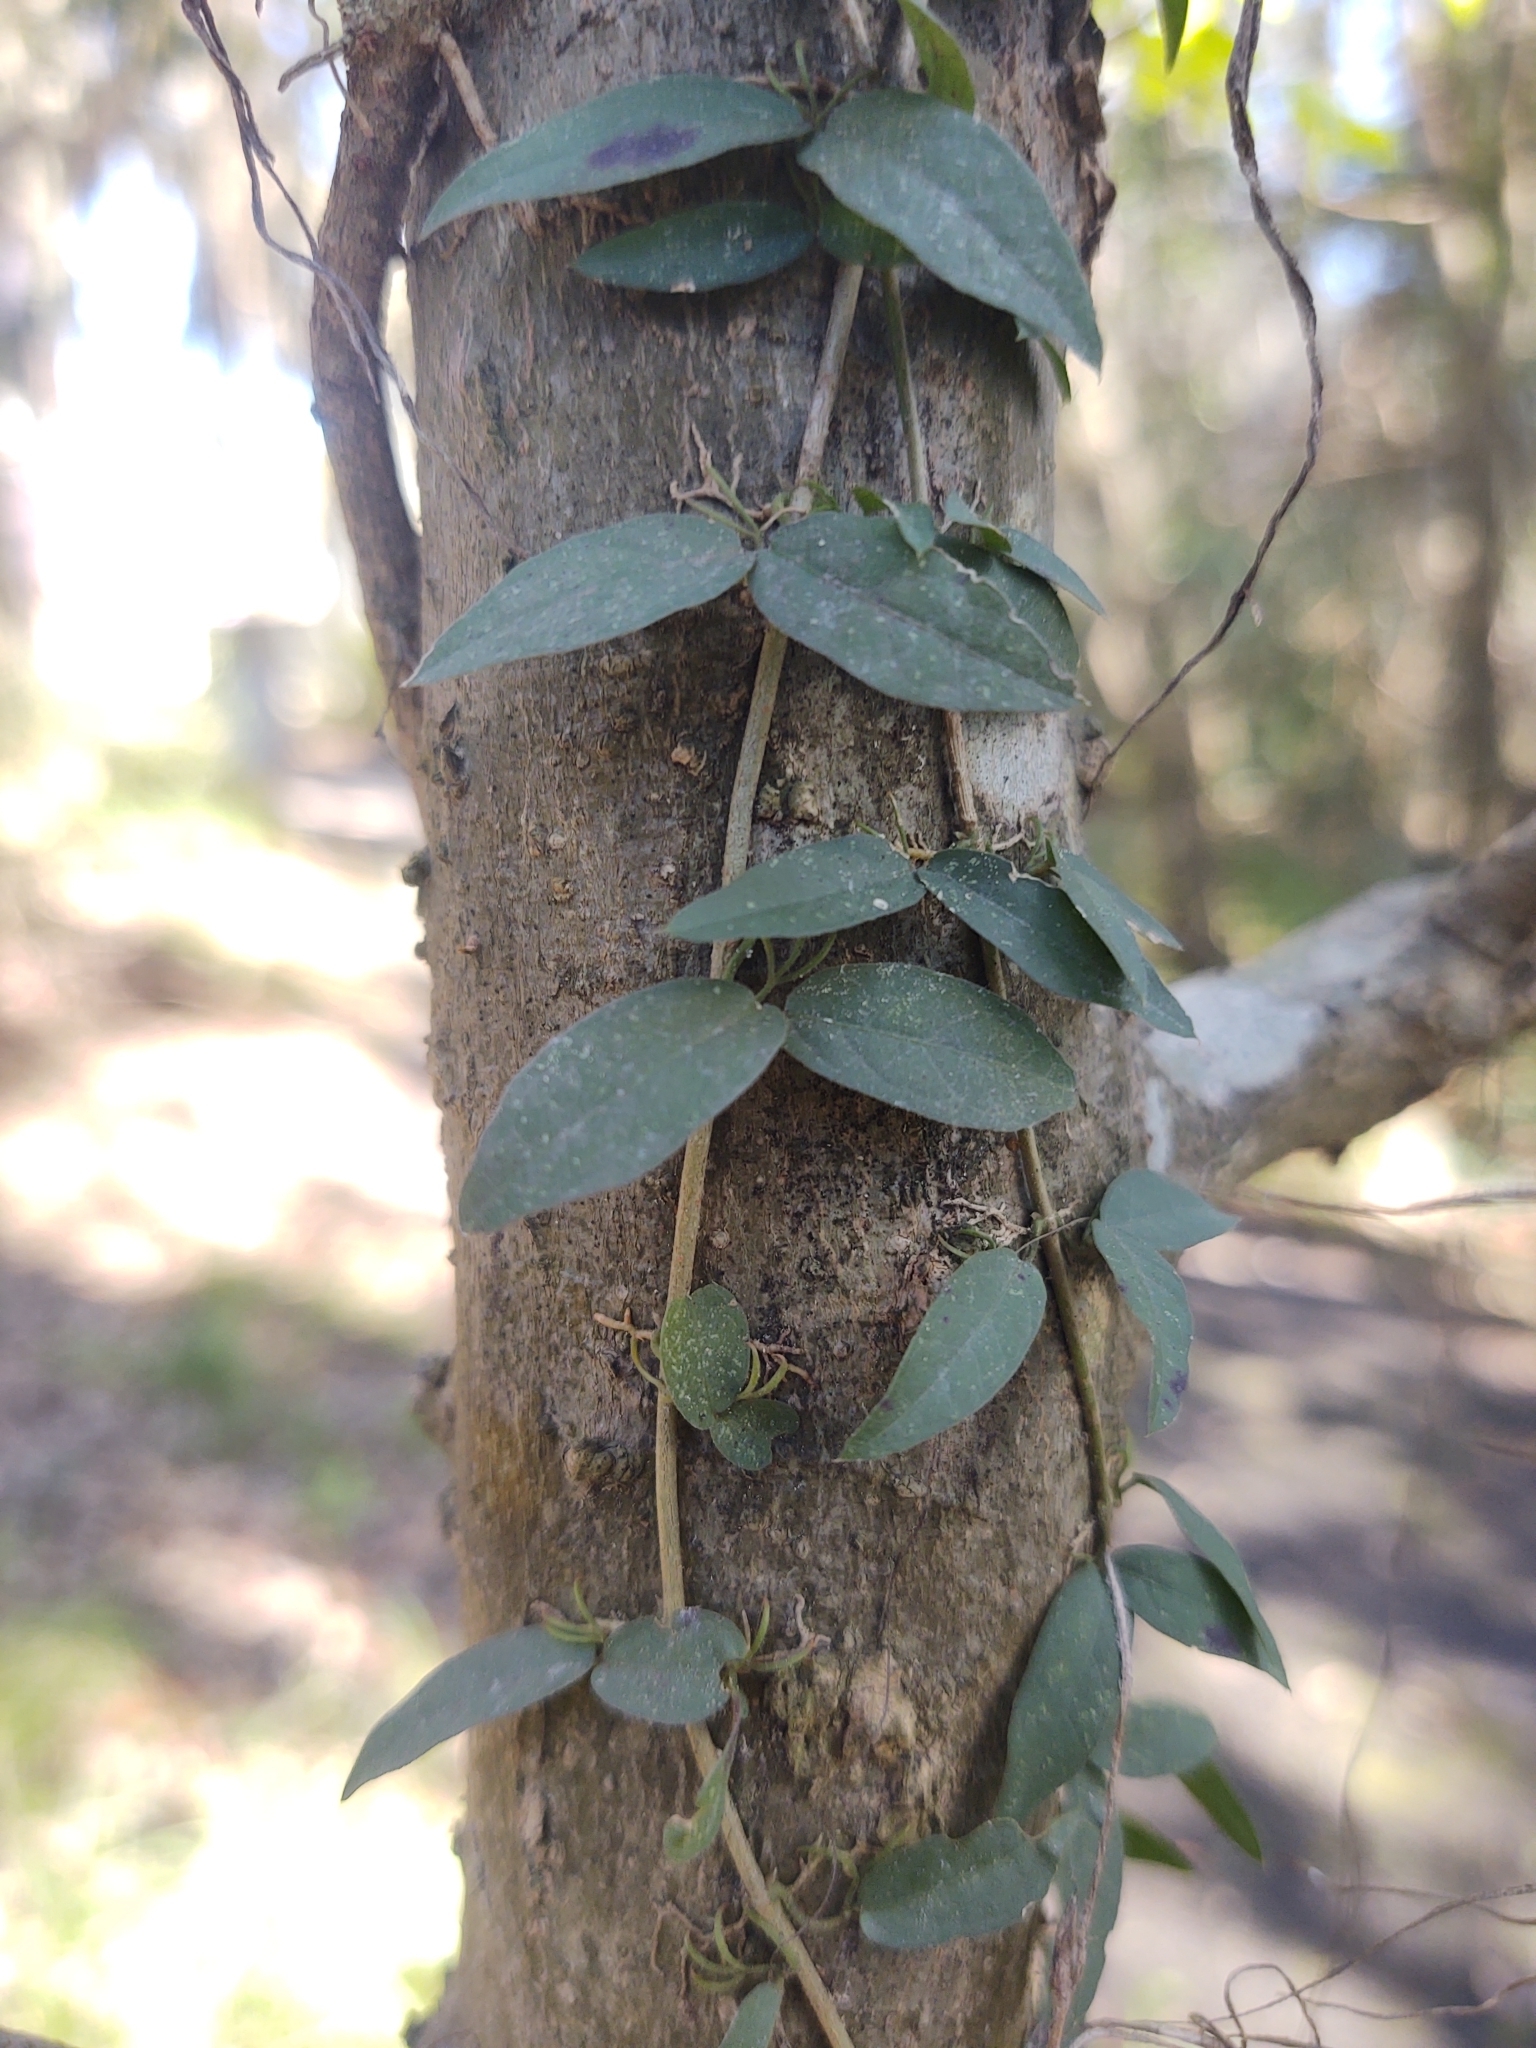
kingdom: Plantae
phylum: Tracheophyta
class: Magnoliopsida
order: Lamiales
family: Bignoniaceae
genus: Dolichandra
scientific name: Dolichandra unguis-cati
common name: Catclaw vine
